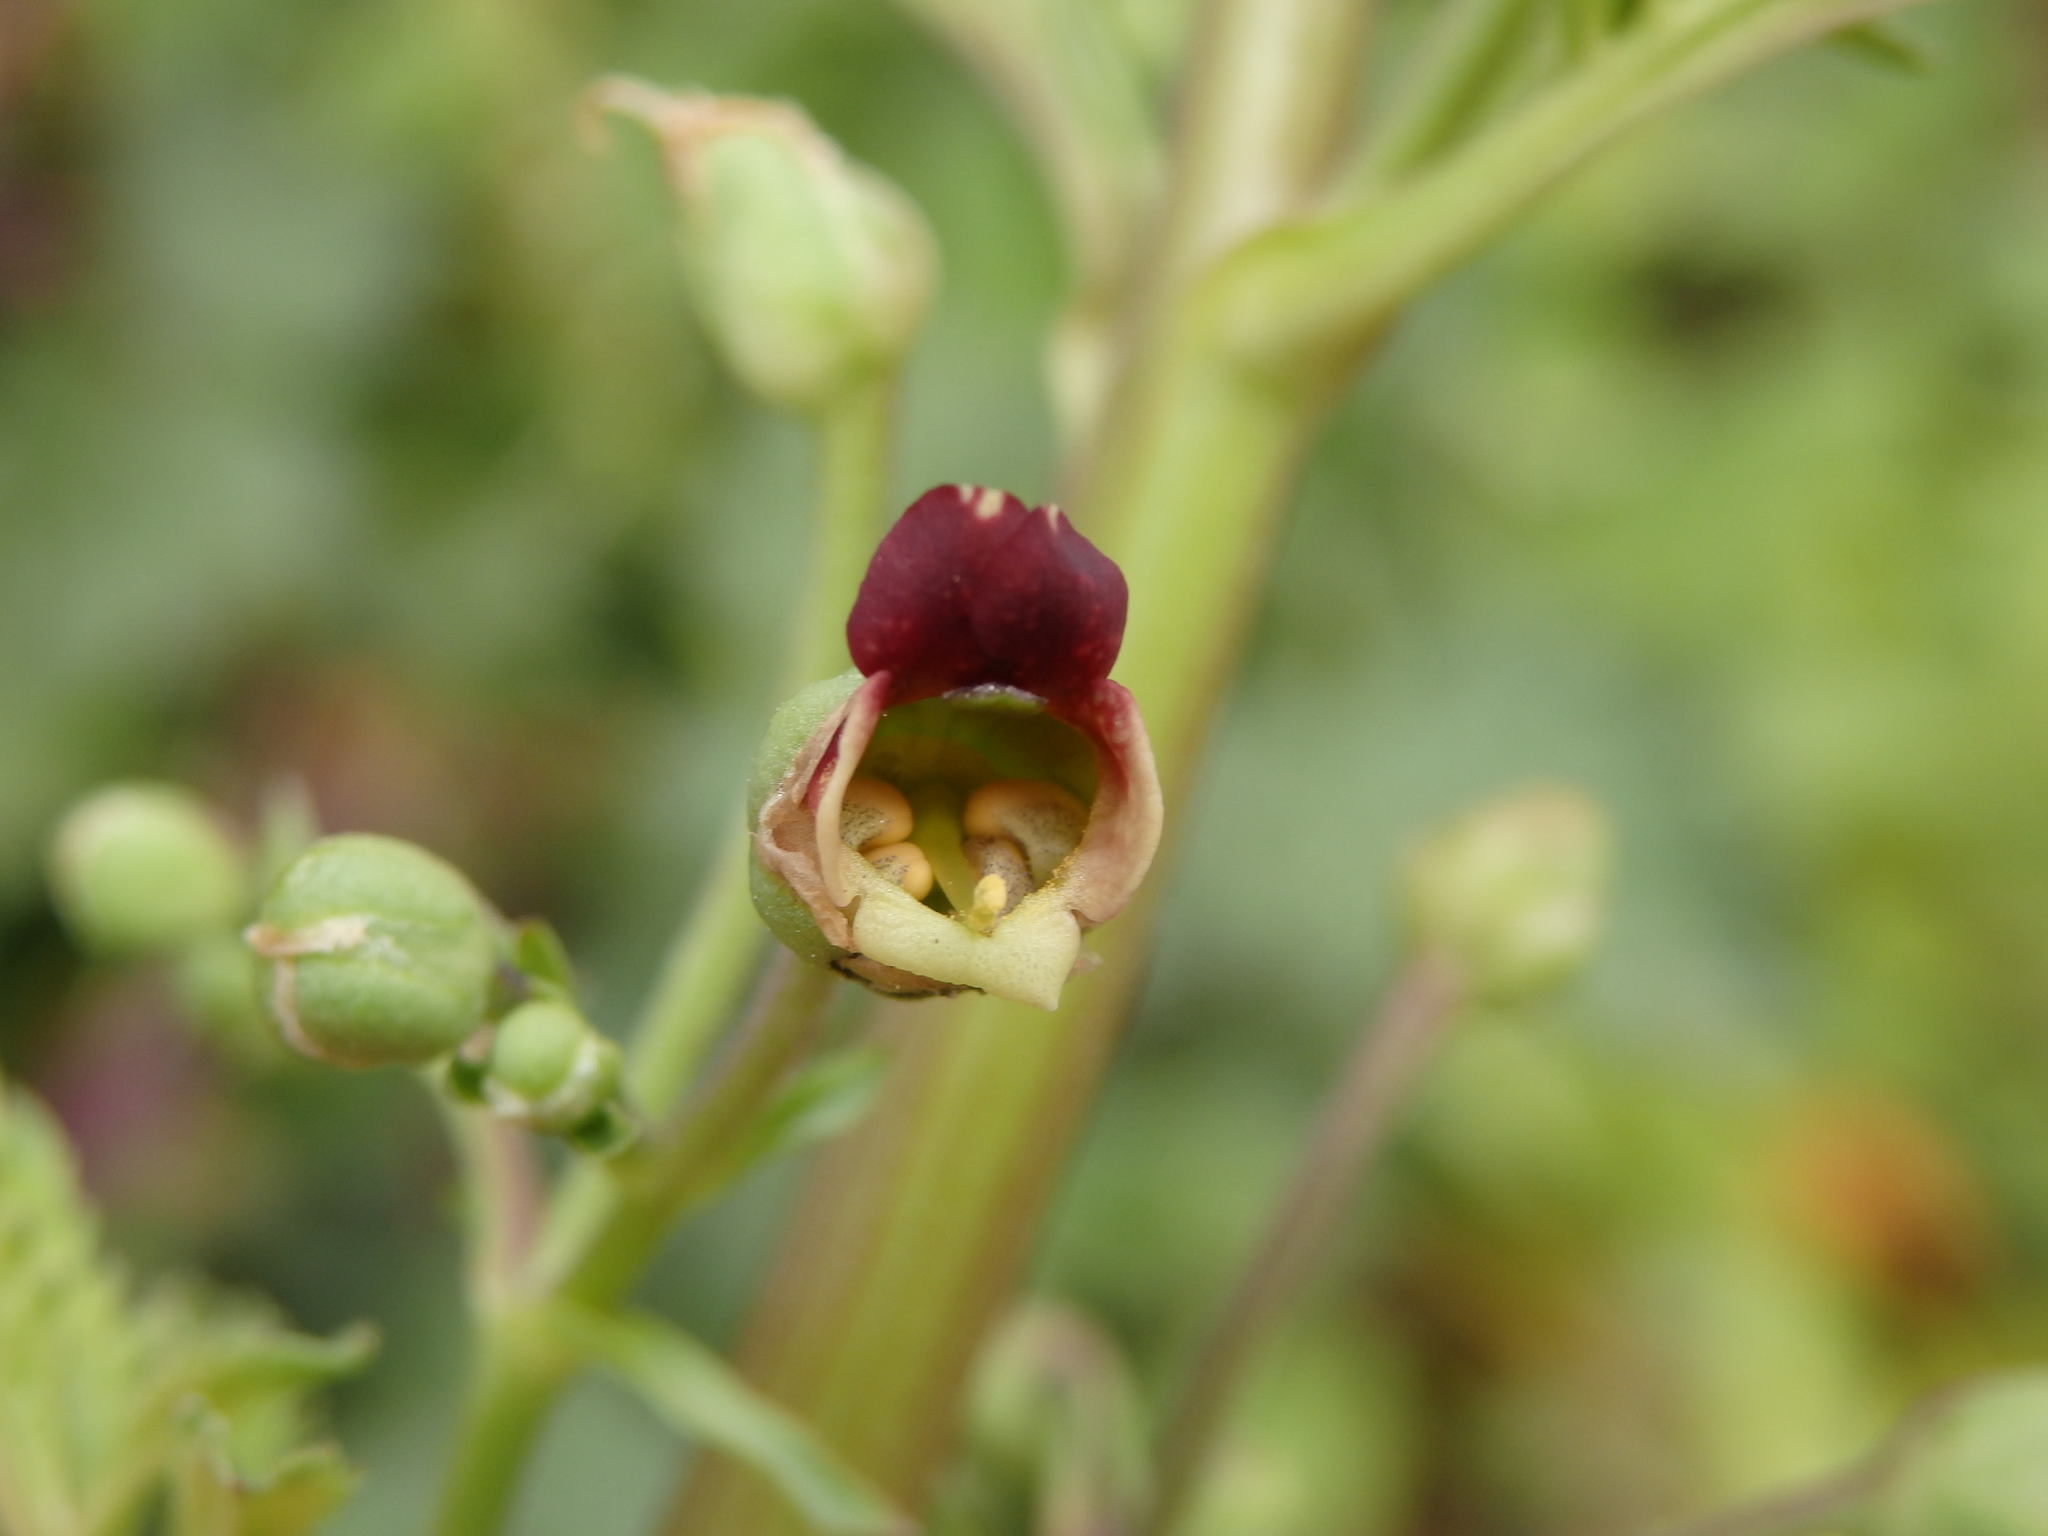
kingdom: Plantae
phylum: Tracheophyta
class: Magnoliopsida
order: Lamiales
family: Scrophulariaceae
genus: Scrophularia
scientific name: Scrophularia sublyrata
